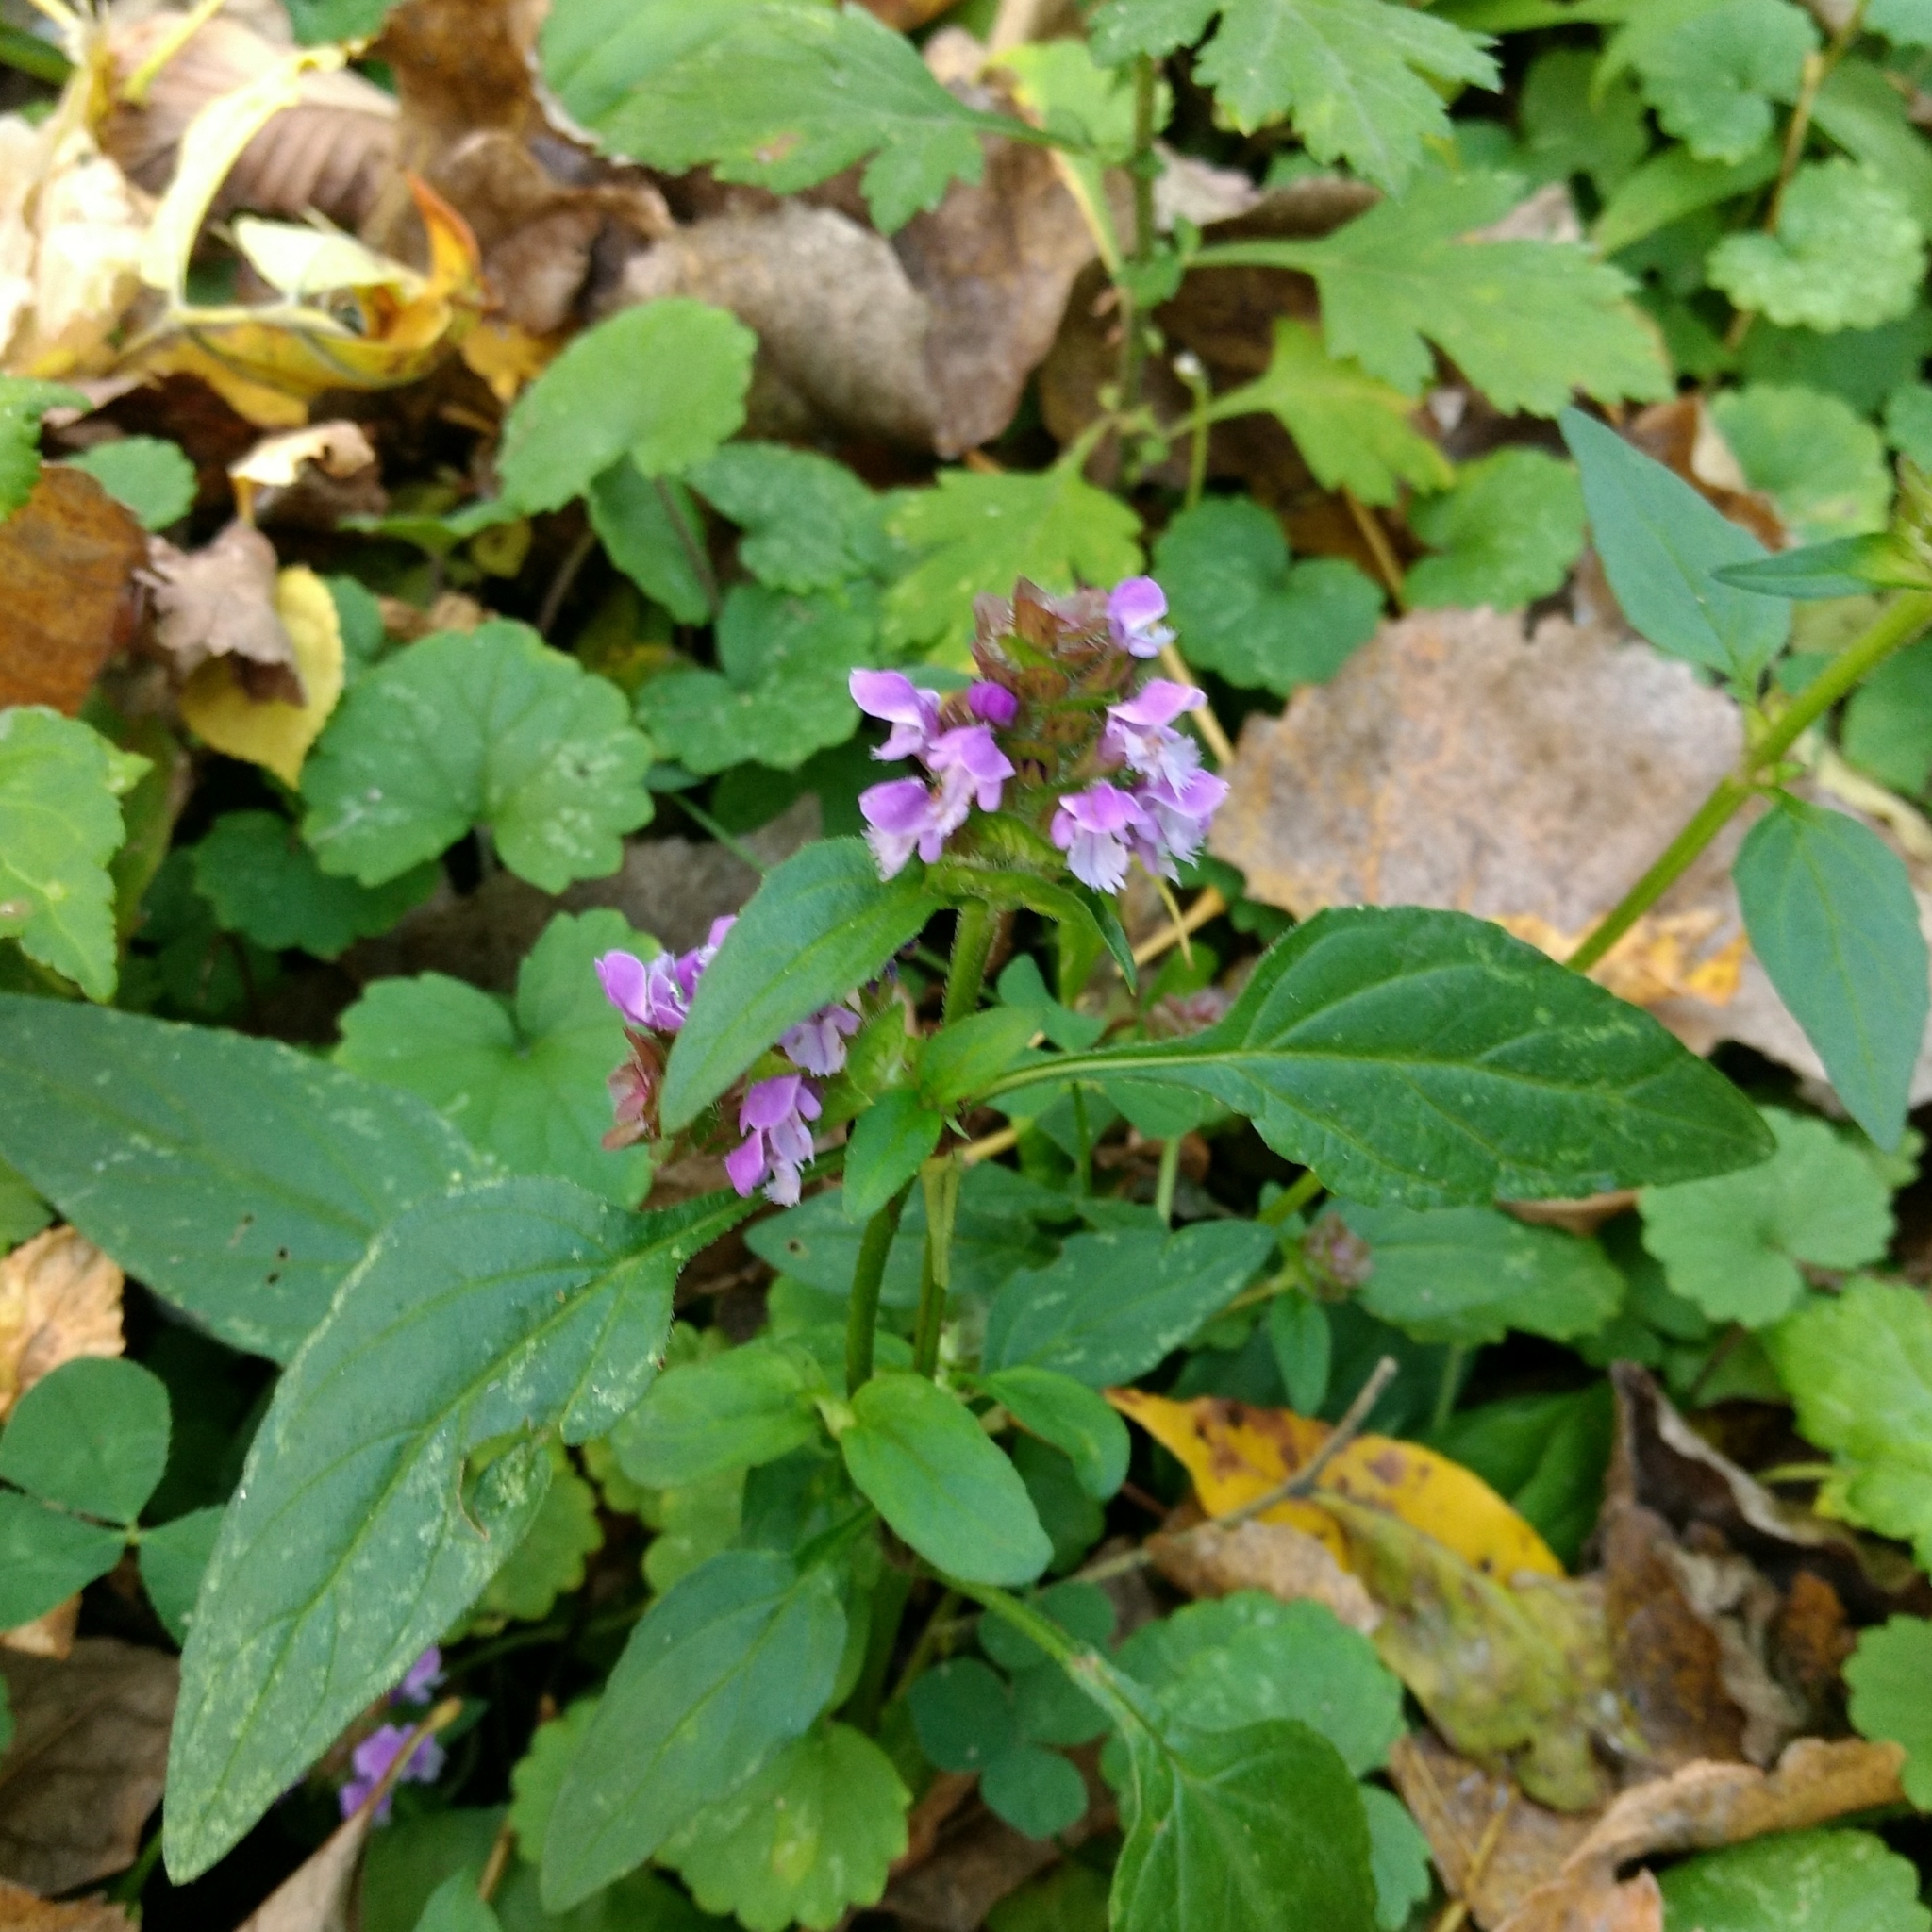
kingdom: Plantae
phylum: Tracheophyta
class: Magnoliopsida
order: Lamiales
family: Lamiaceae
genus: Prunella
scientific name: Prunella vulgaris
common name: Heal-all
